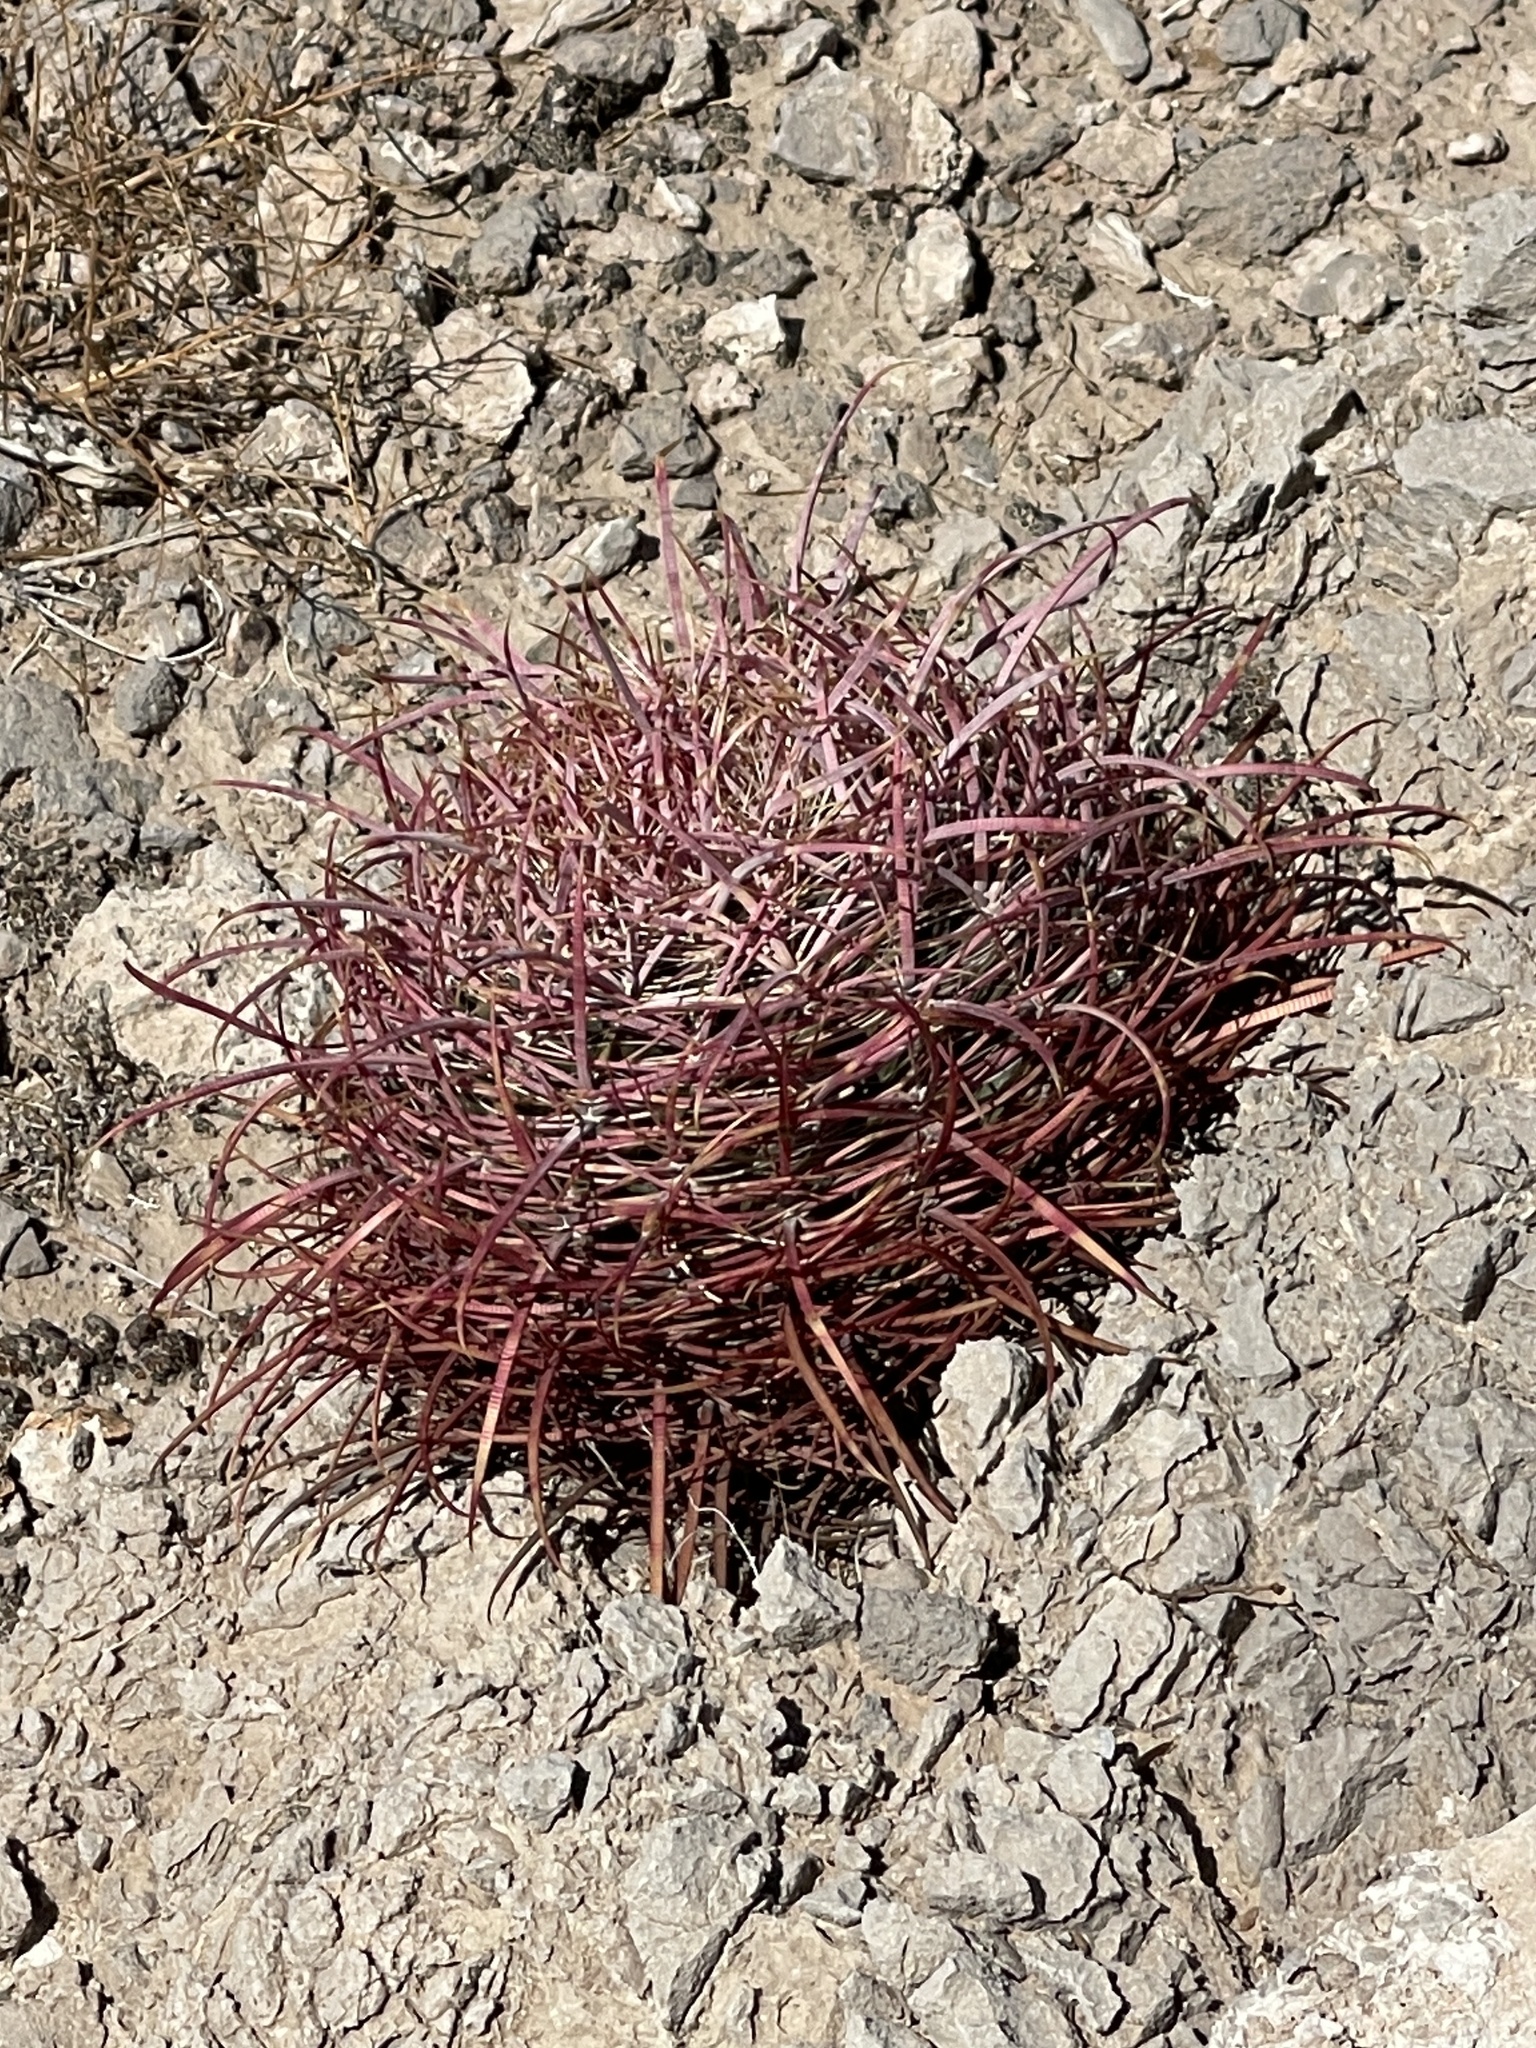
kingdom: Plantae
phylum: Tracheophyta
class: Magnoliopsida
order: Caryophyllales
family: Cactaceae
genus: Ferocactus
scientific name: Ferocactus cylindraceus
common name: California barrel cactus
